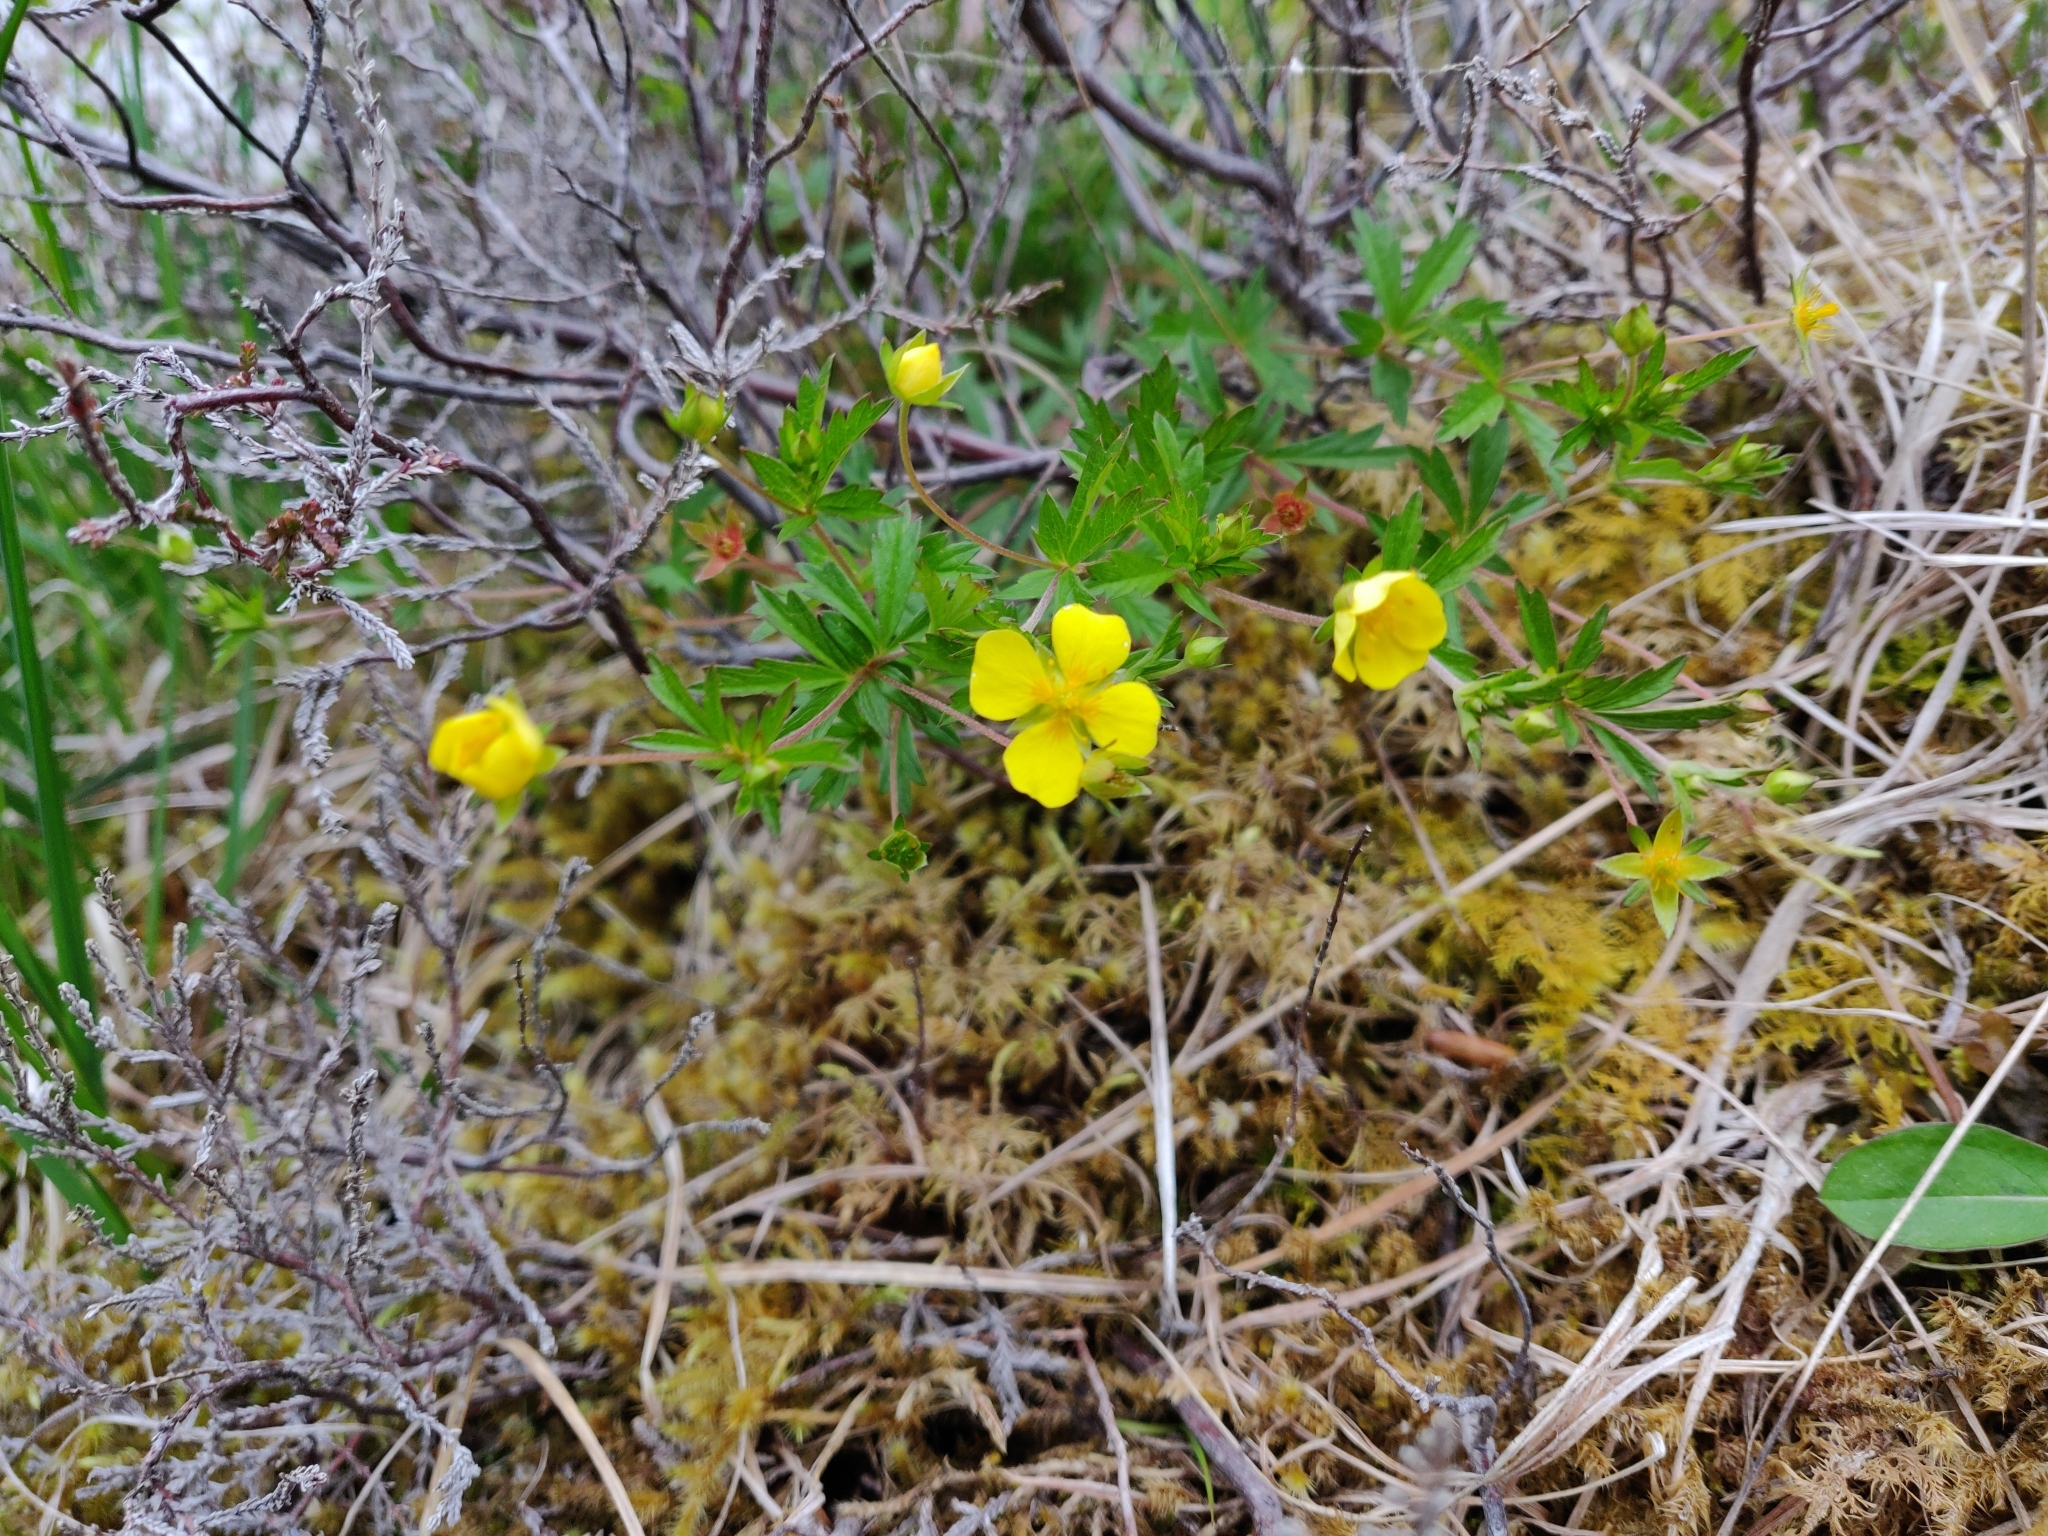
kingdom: Plantae
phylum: Tracheophyta
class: Magnoliopsida
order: Rosales
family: Rosaceae
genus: Potentilla
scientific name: Potentilla erecta
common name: Tormentil
